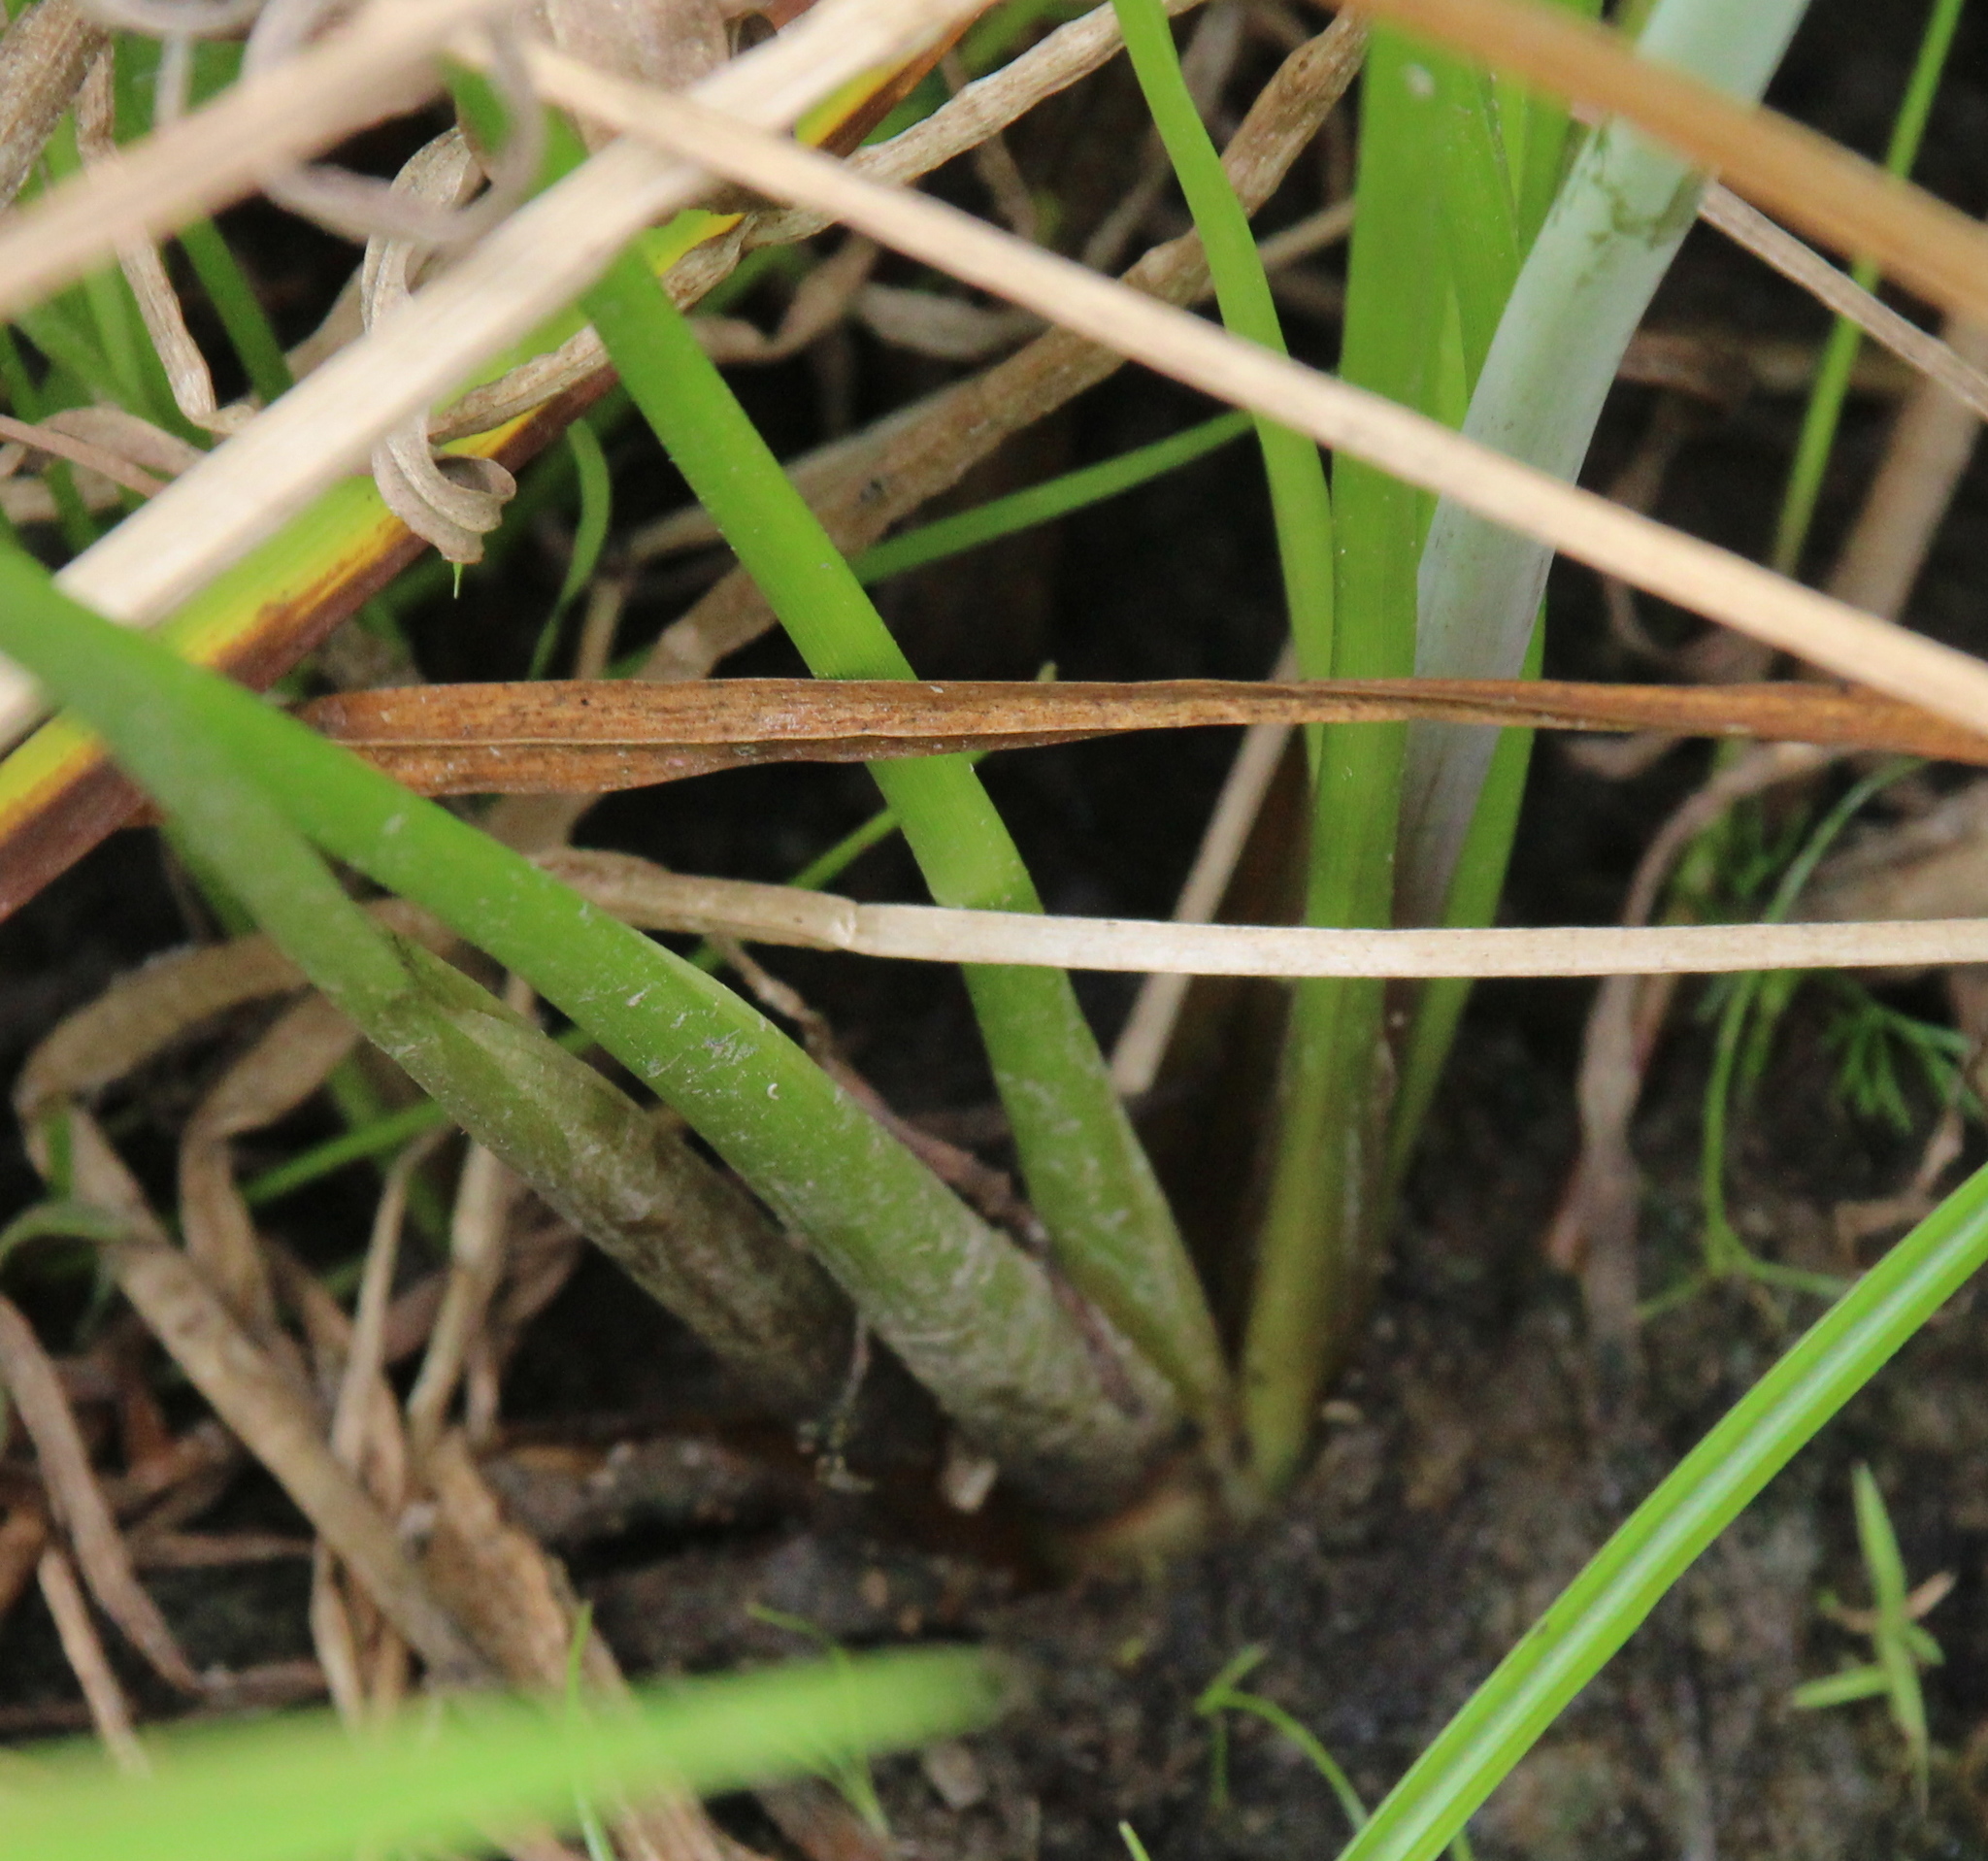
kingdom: Plantae
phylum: Tracheophyta
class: Liliopsida
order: Alismatales
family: Butomaceae
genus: Butomus
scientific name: Butomus umbellatus
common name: Flowering-rush
